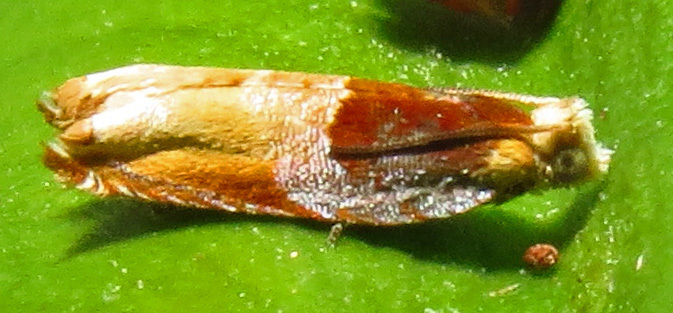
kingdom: Animalia
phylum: Arthropoda
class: Insecta
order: Lepidoptera
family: Tortricidae
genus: Ancylis
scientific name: Ancylis divisana
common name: Two-toned ancylis moth
